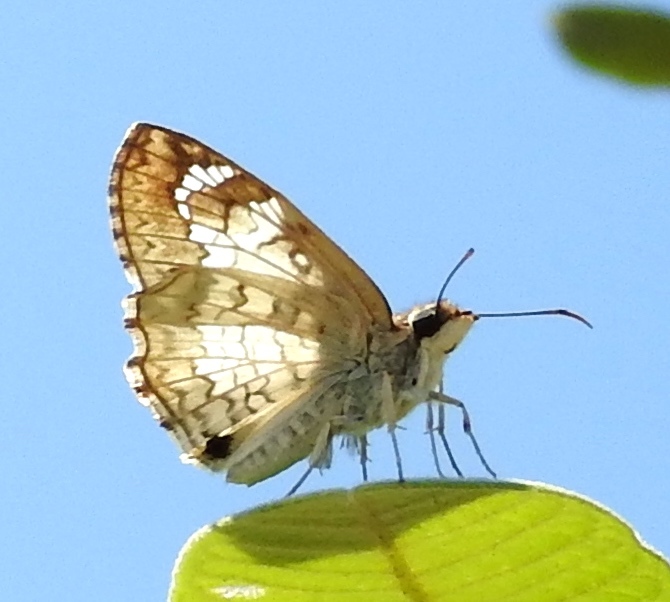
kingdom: Animalia
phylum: Arthropoda
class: Insecta
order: Lepidoptera
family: Hesperiidae
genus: Antigonus
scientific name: Antigonus emorsa
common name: White spurwing
